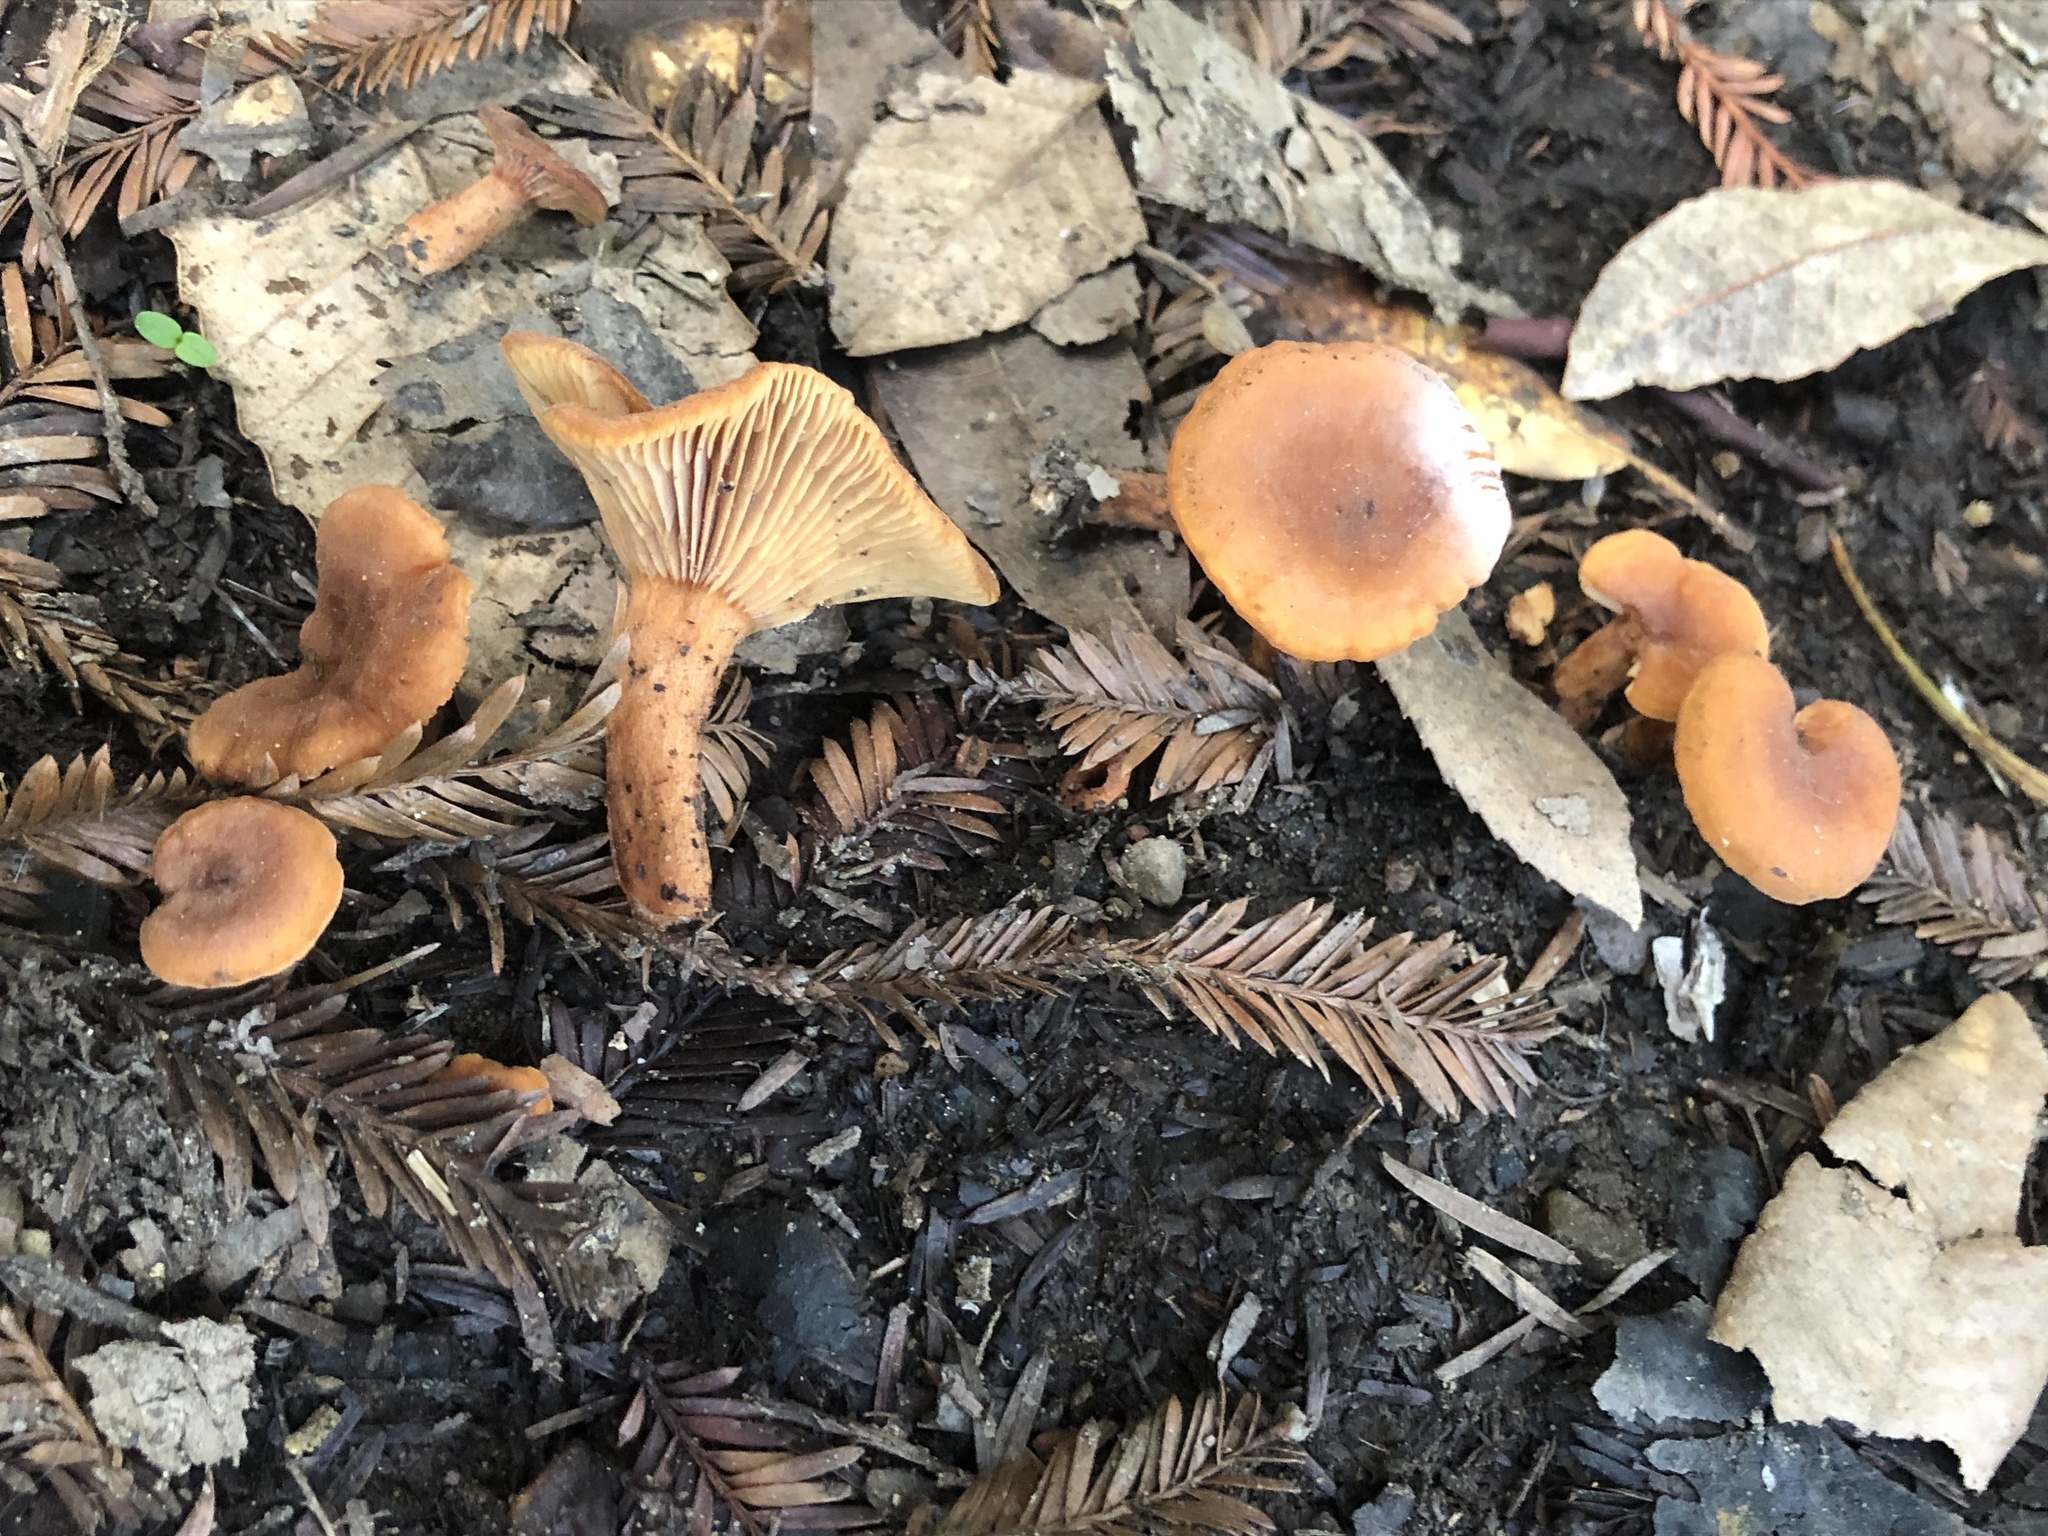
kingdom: Fungi
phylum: Basidiomycota
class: Agaricomycetes
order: Russulales
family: Russulaceae
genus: Lactarius
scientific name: Lactarius rubidus
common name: Candy cap
